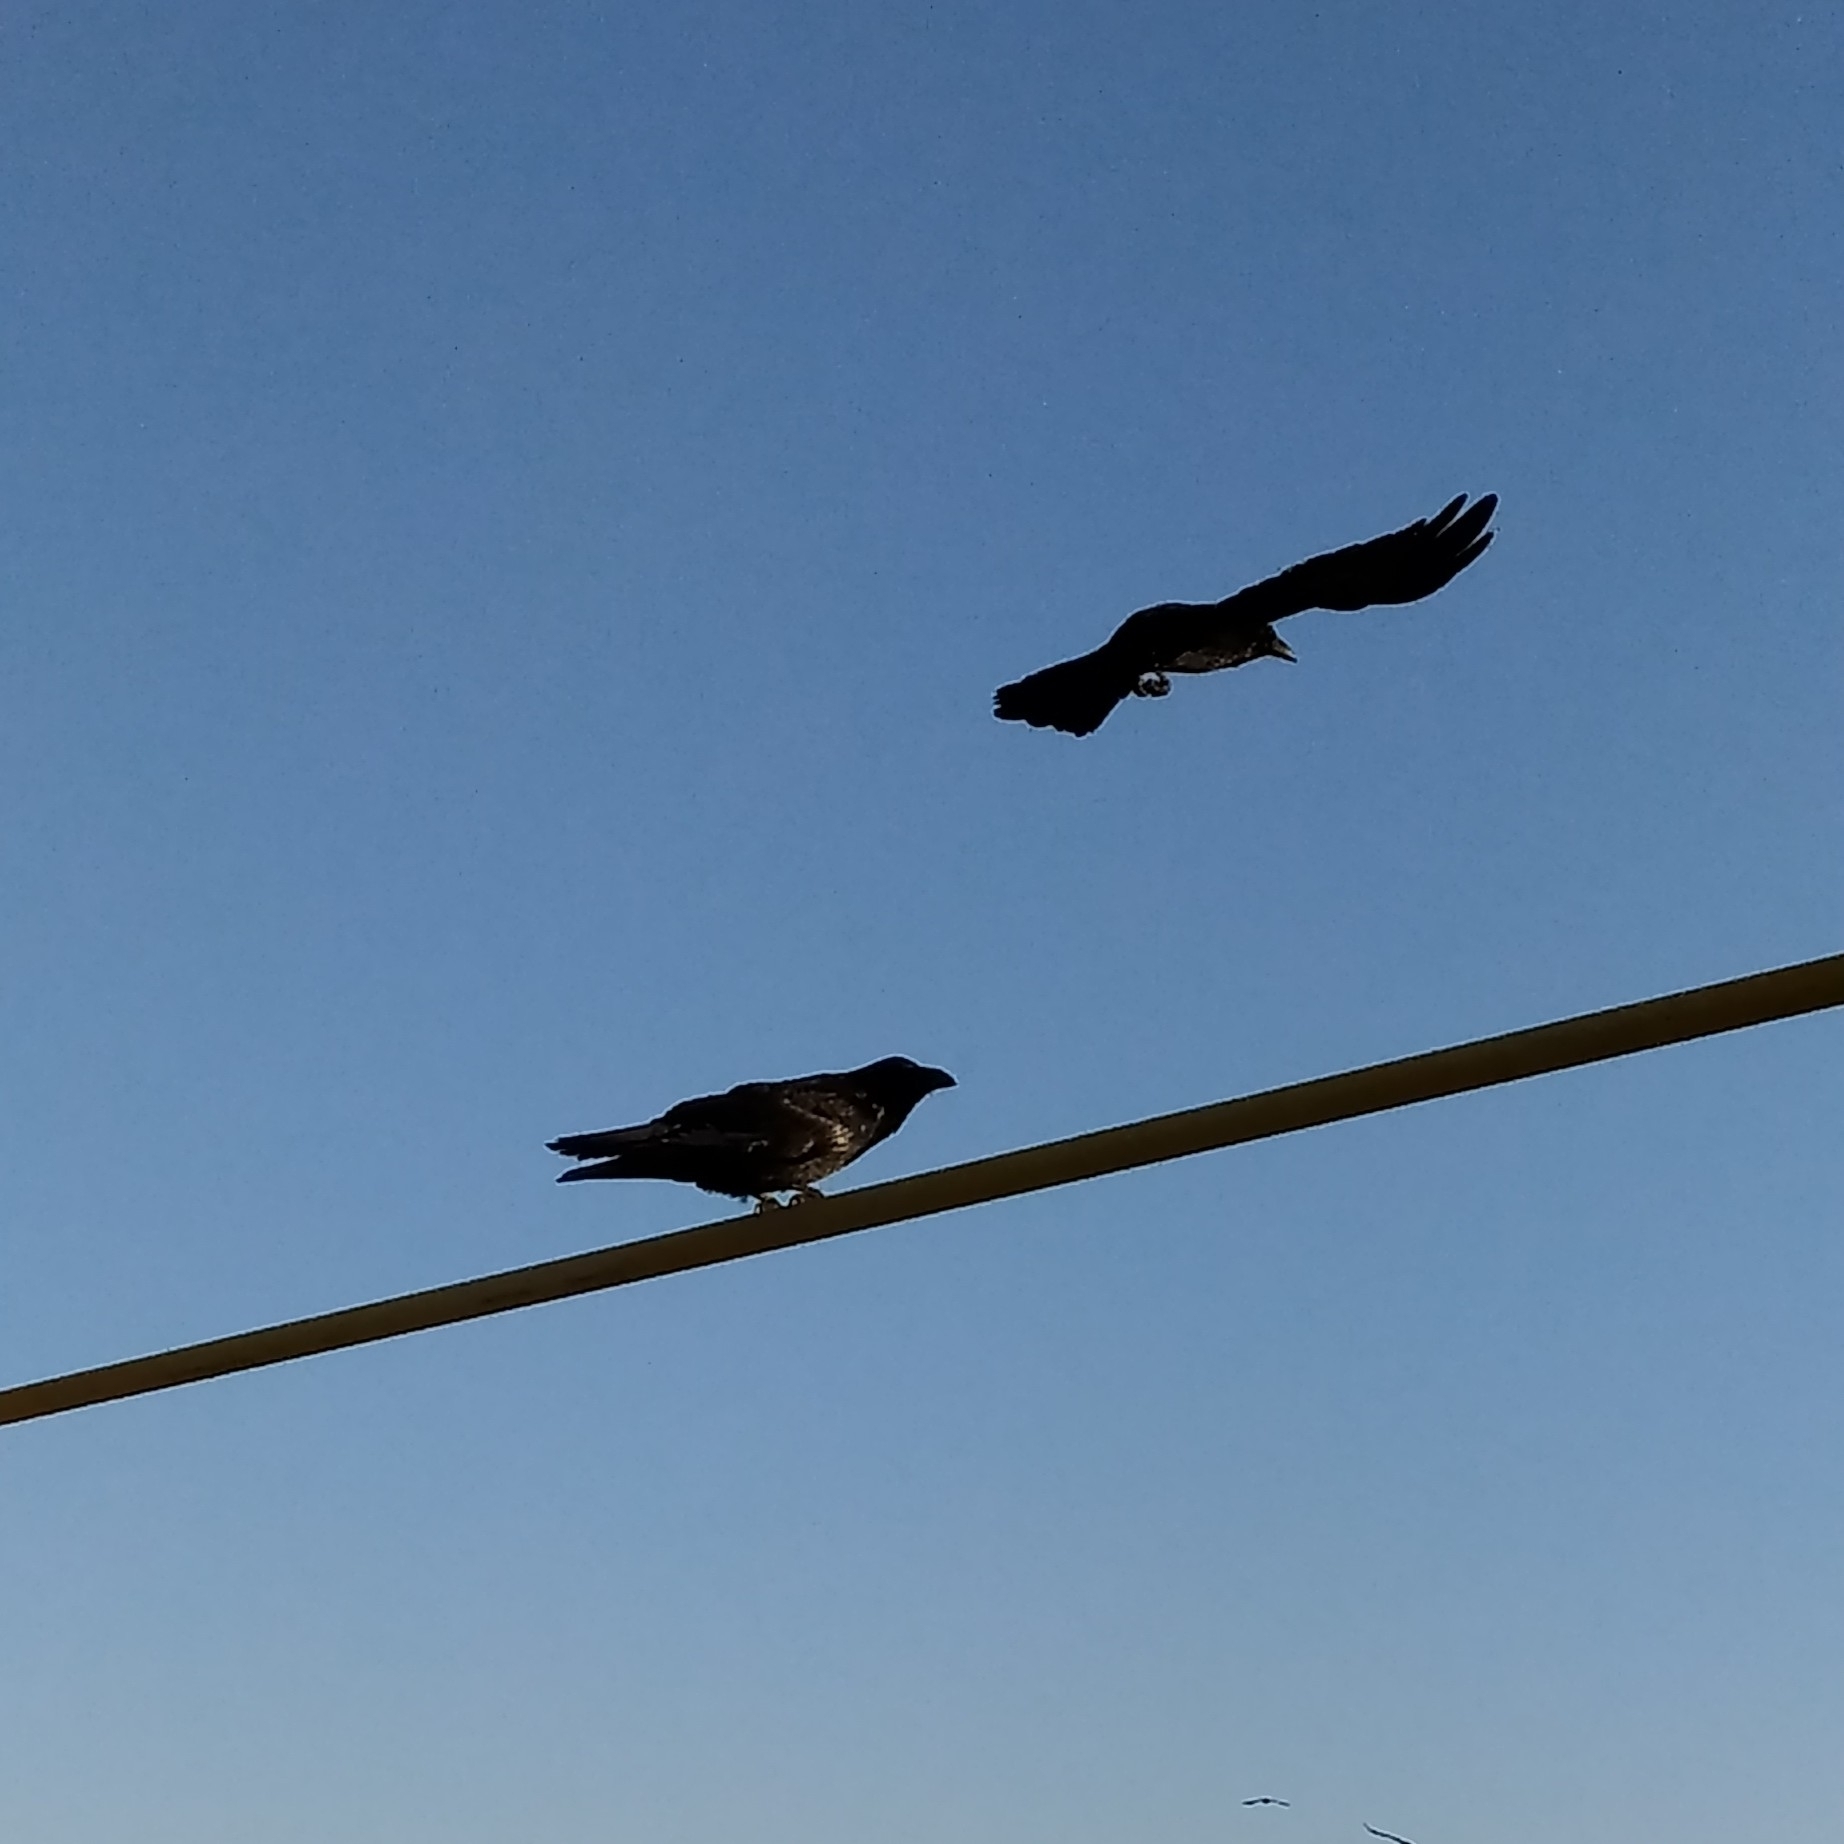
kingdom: Animalia
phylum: Chordata
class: Aves
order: Passeriformes
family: Corvidae
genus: Corvus
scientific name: Corvus corax
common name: Common raven
